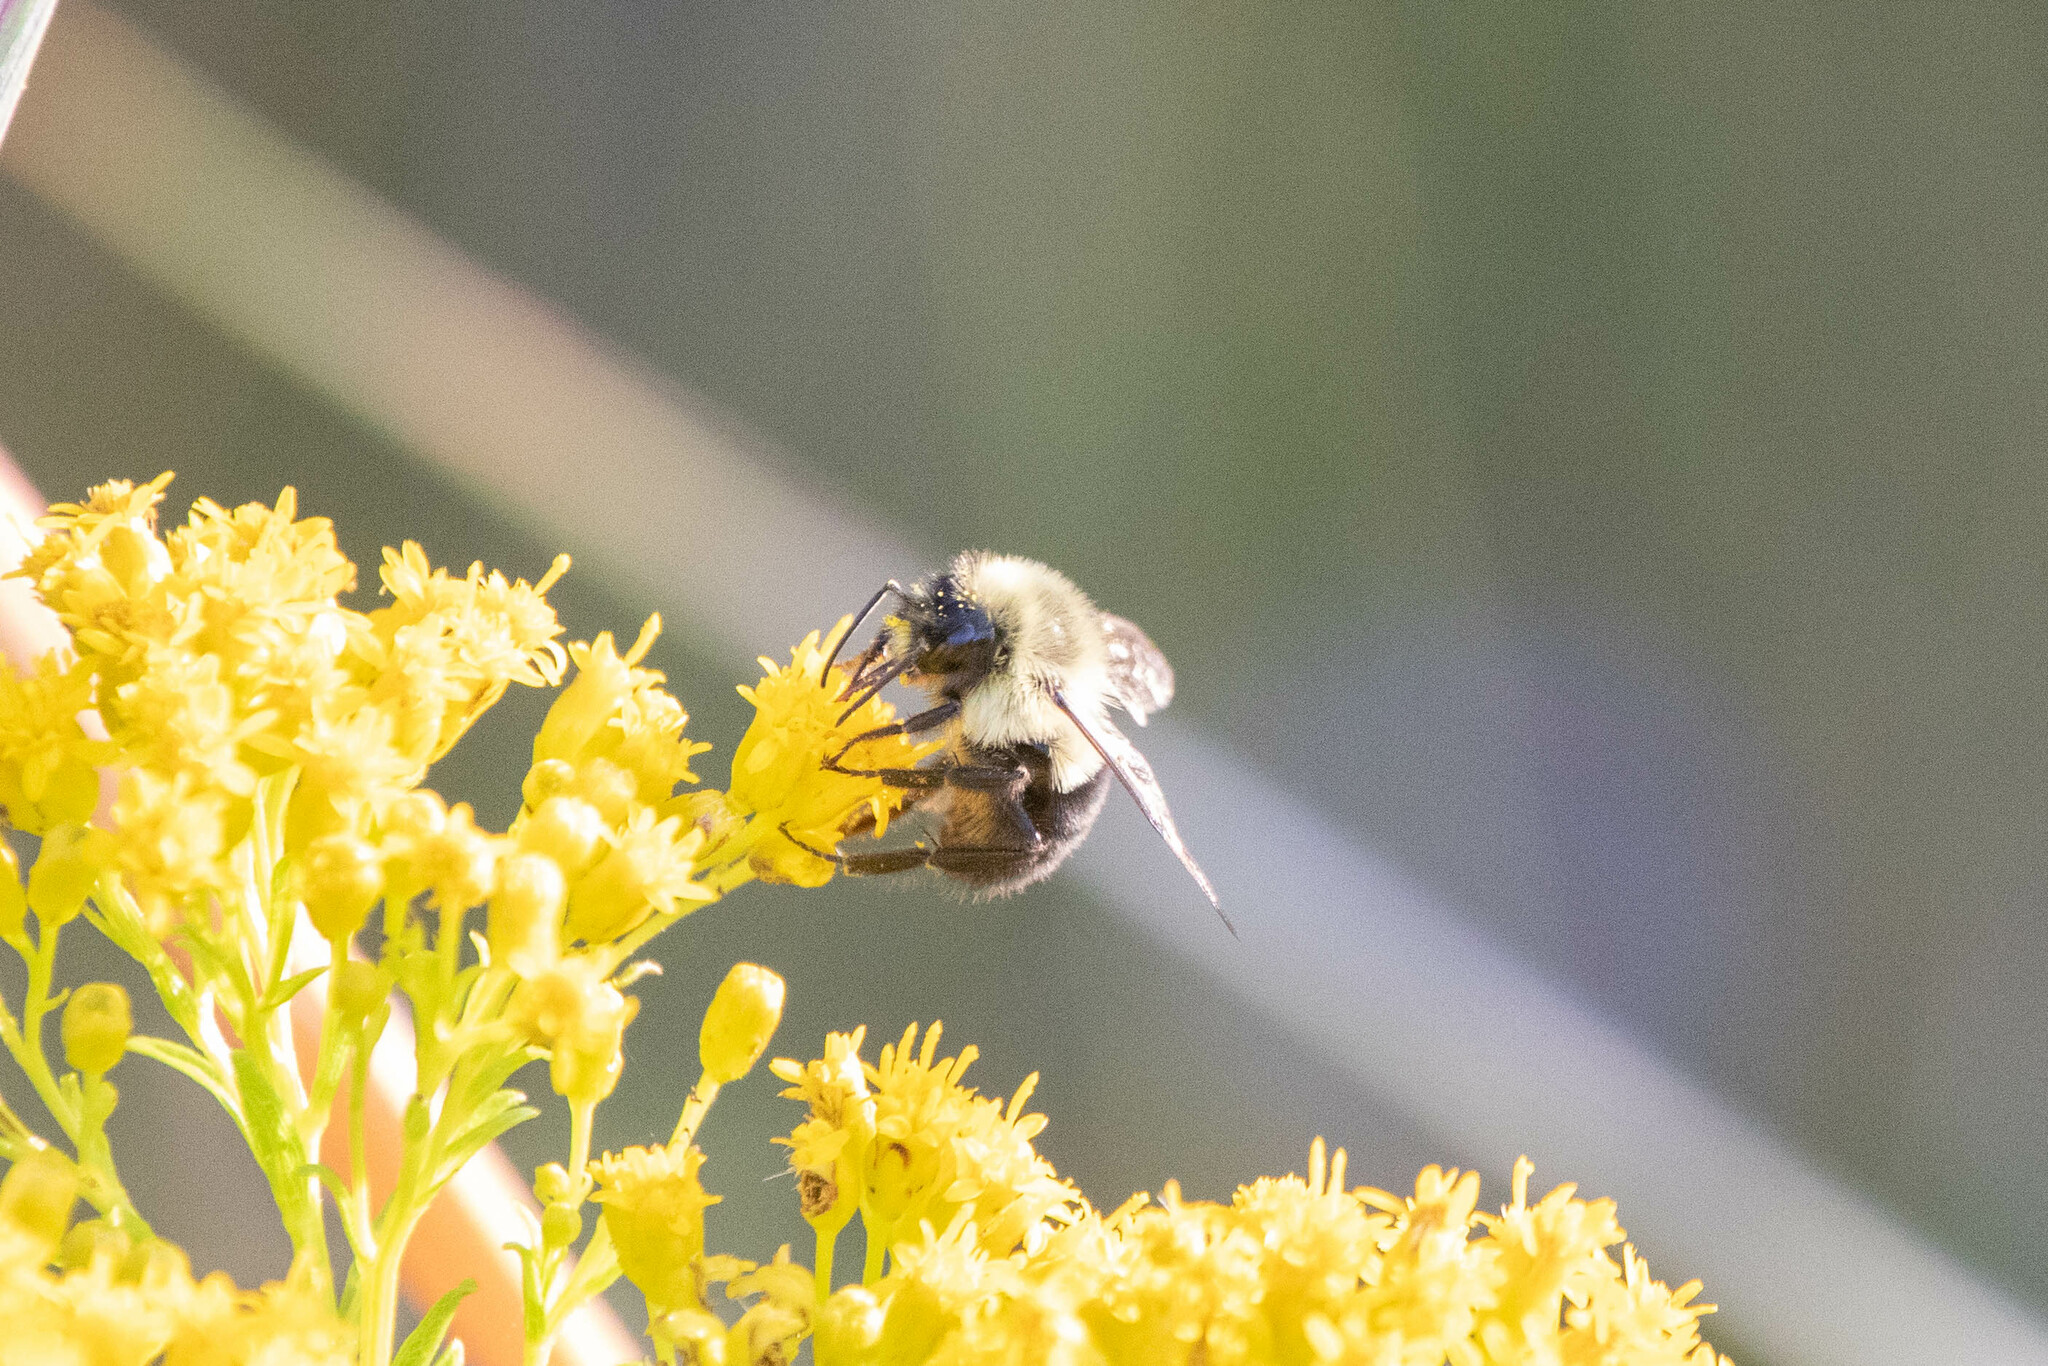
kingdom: Animalia
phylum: Arthropoda
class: Insecta
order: Hymenoptera
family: Apidae
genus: Bombus
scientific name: Bombus impatiens
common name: Common eastern bumble bee
